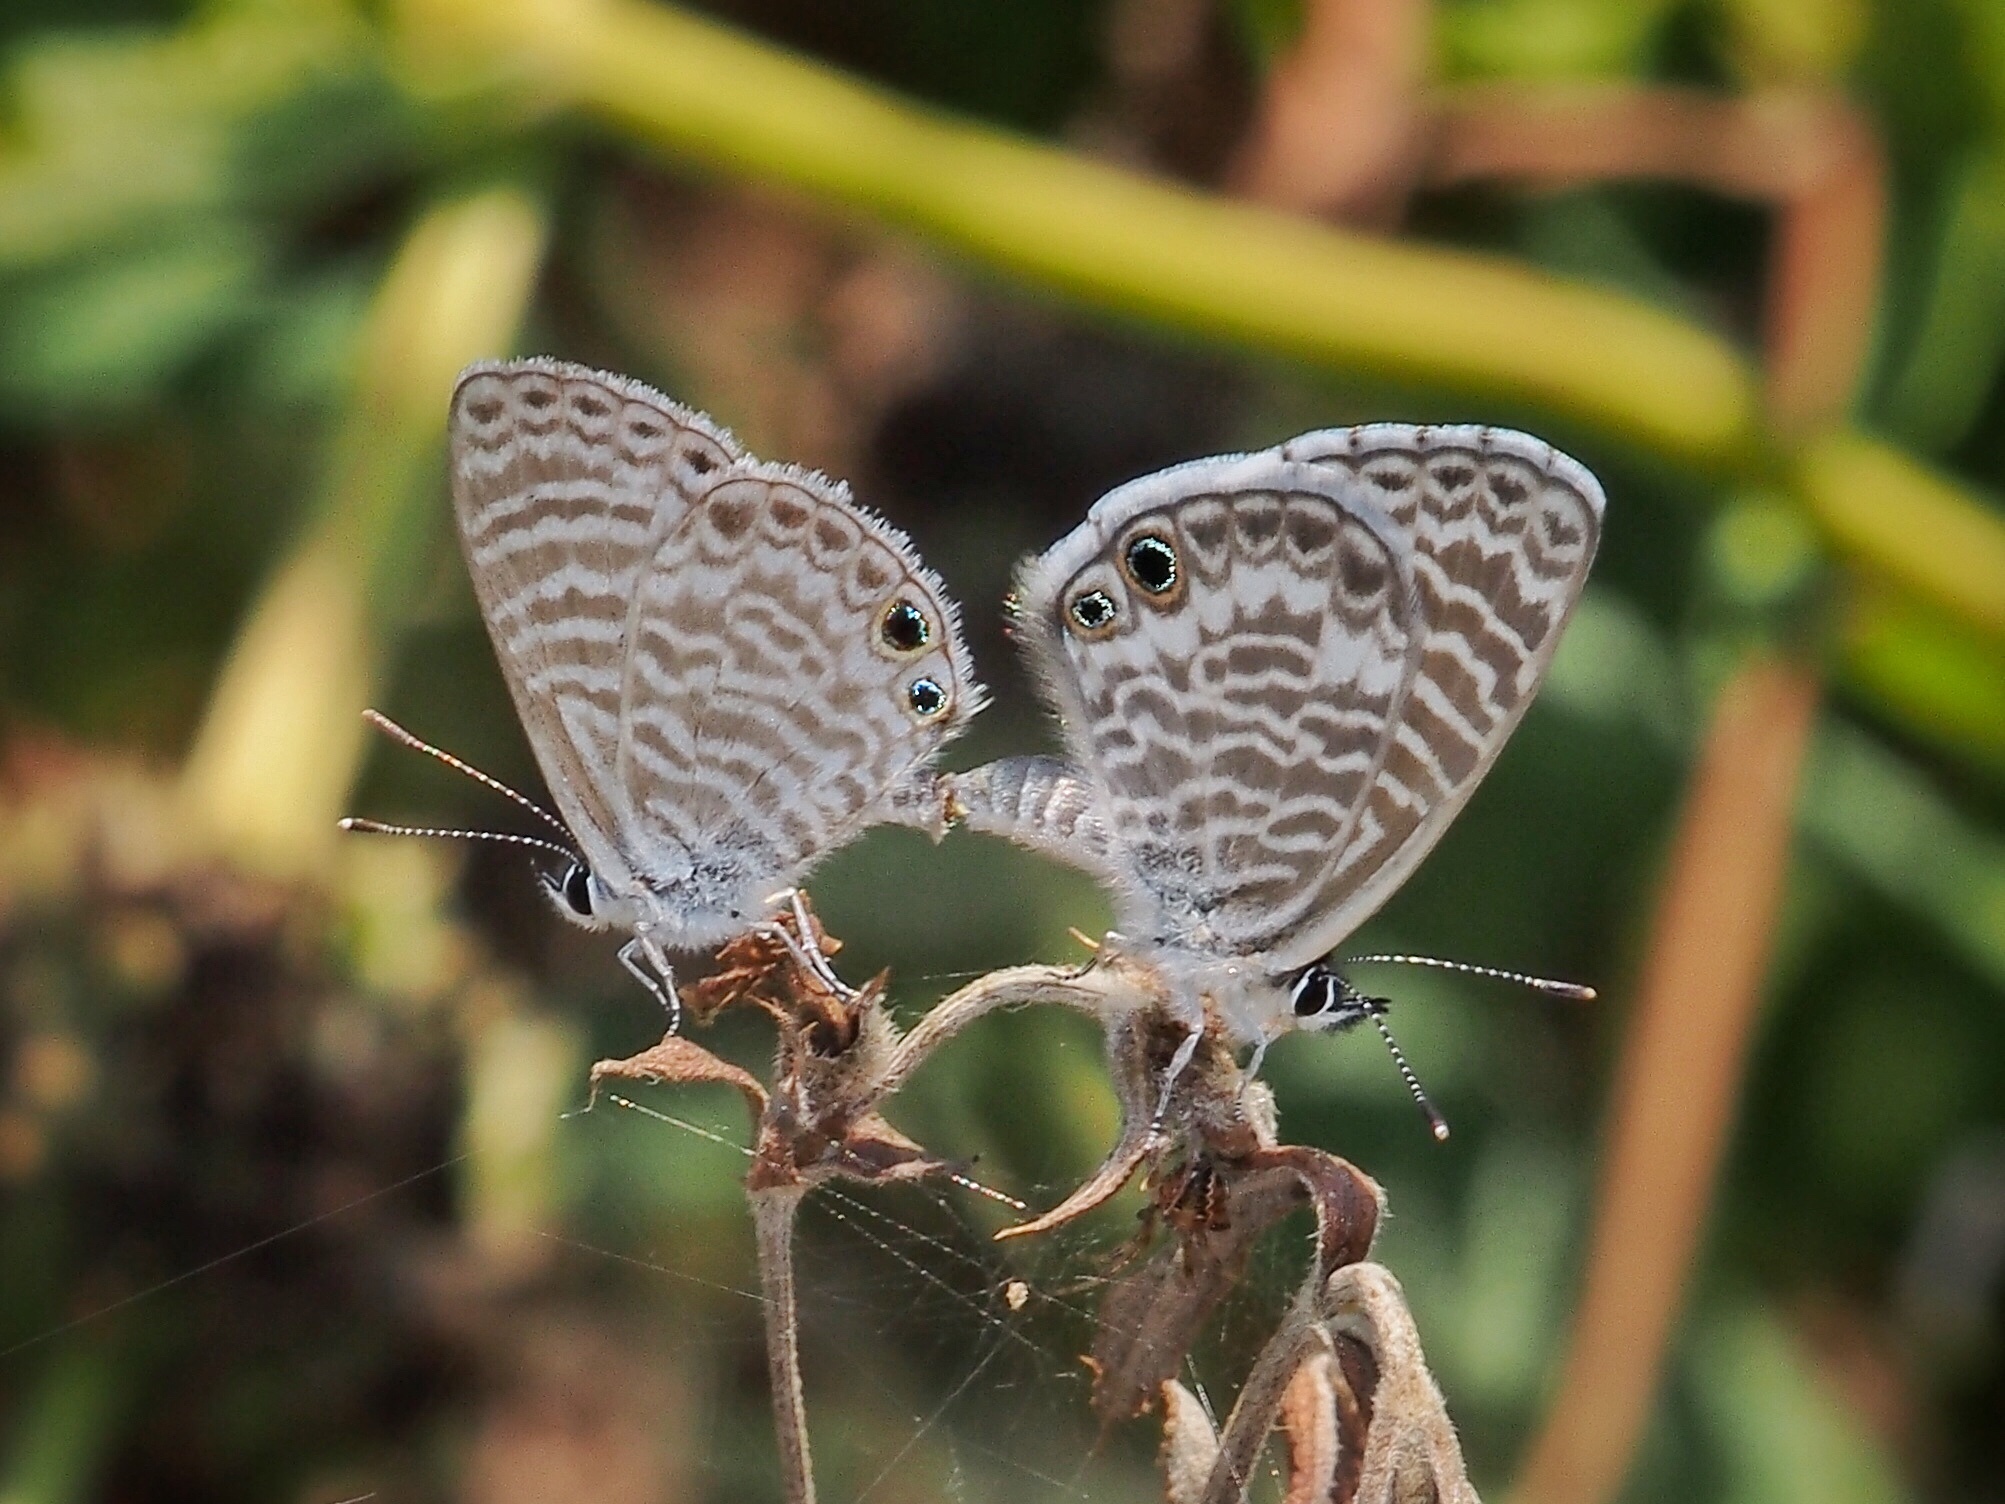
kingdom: Animalia
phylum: Arthropoda
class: Insecta
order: Lepidoptera
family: Lycaenidae
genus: Leptotes
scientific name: Leptotes marina
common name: Marine blue
